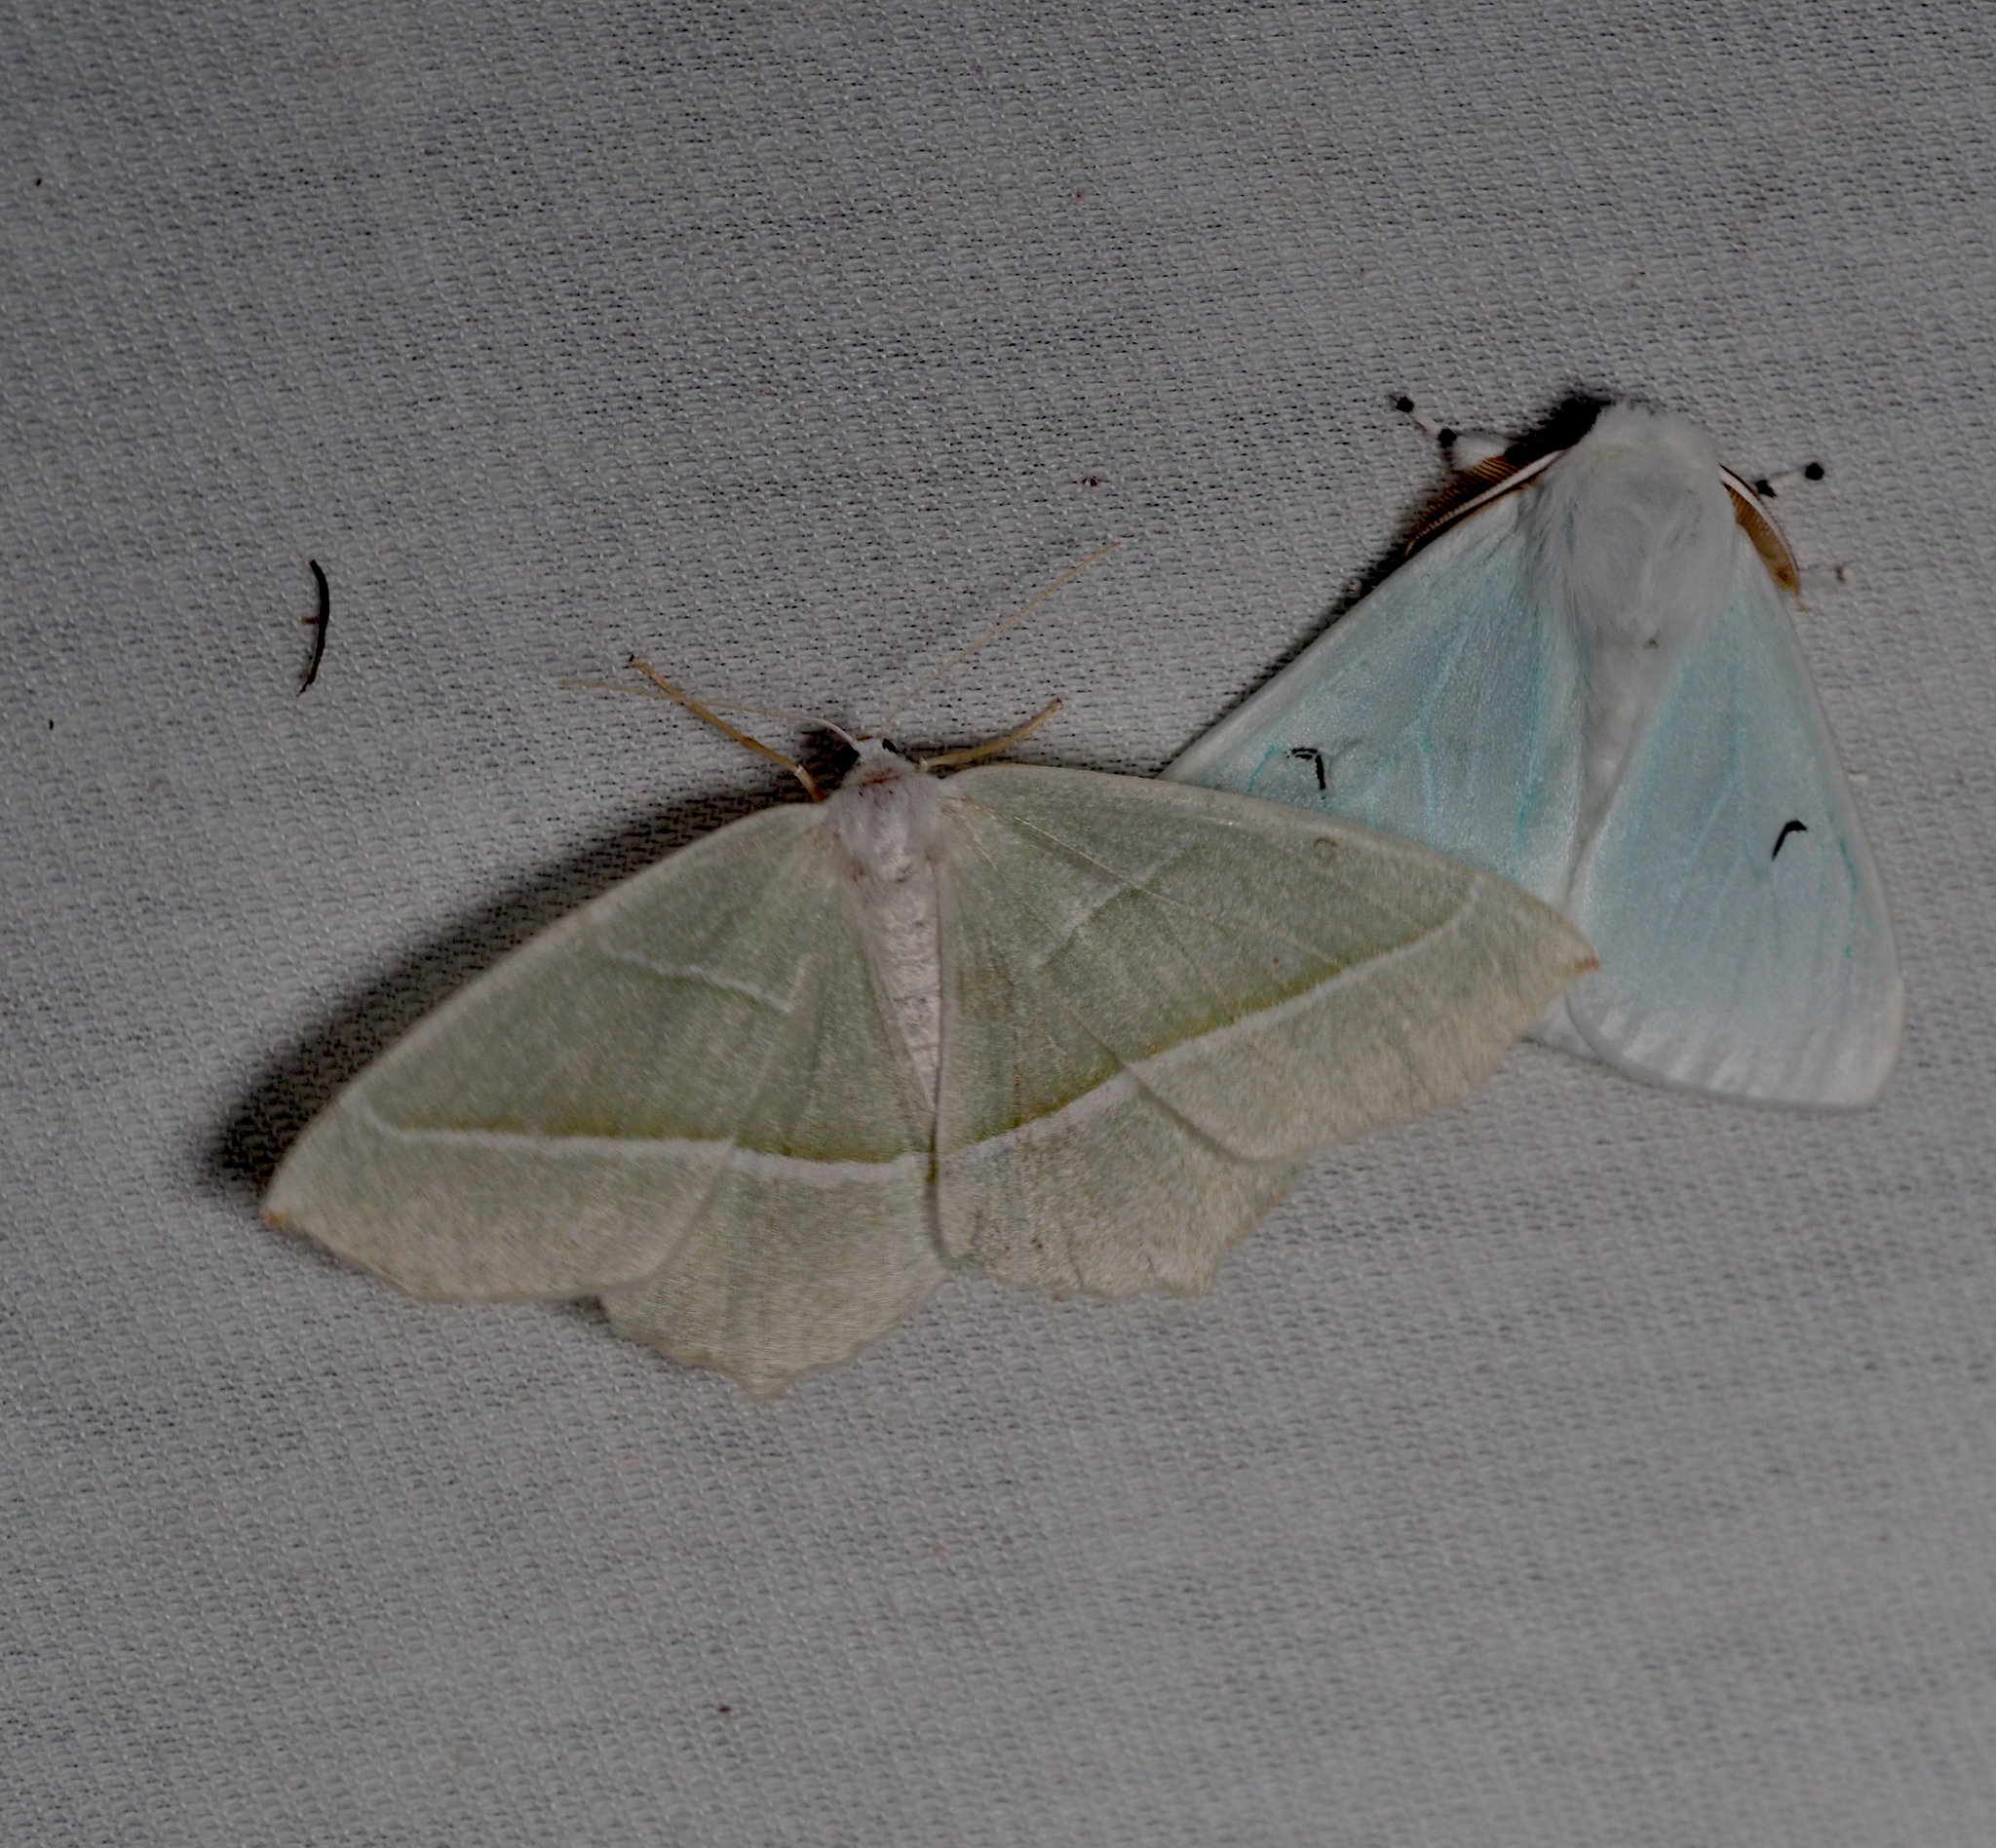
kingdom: Animalia
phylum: Arthropoda
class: Insecta
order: Lepidoptera
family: Geometridae
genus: Campaea
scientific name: Campaea margaritaria
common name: Light emerald
